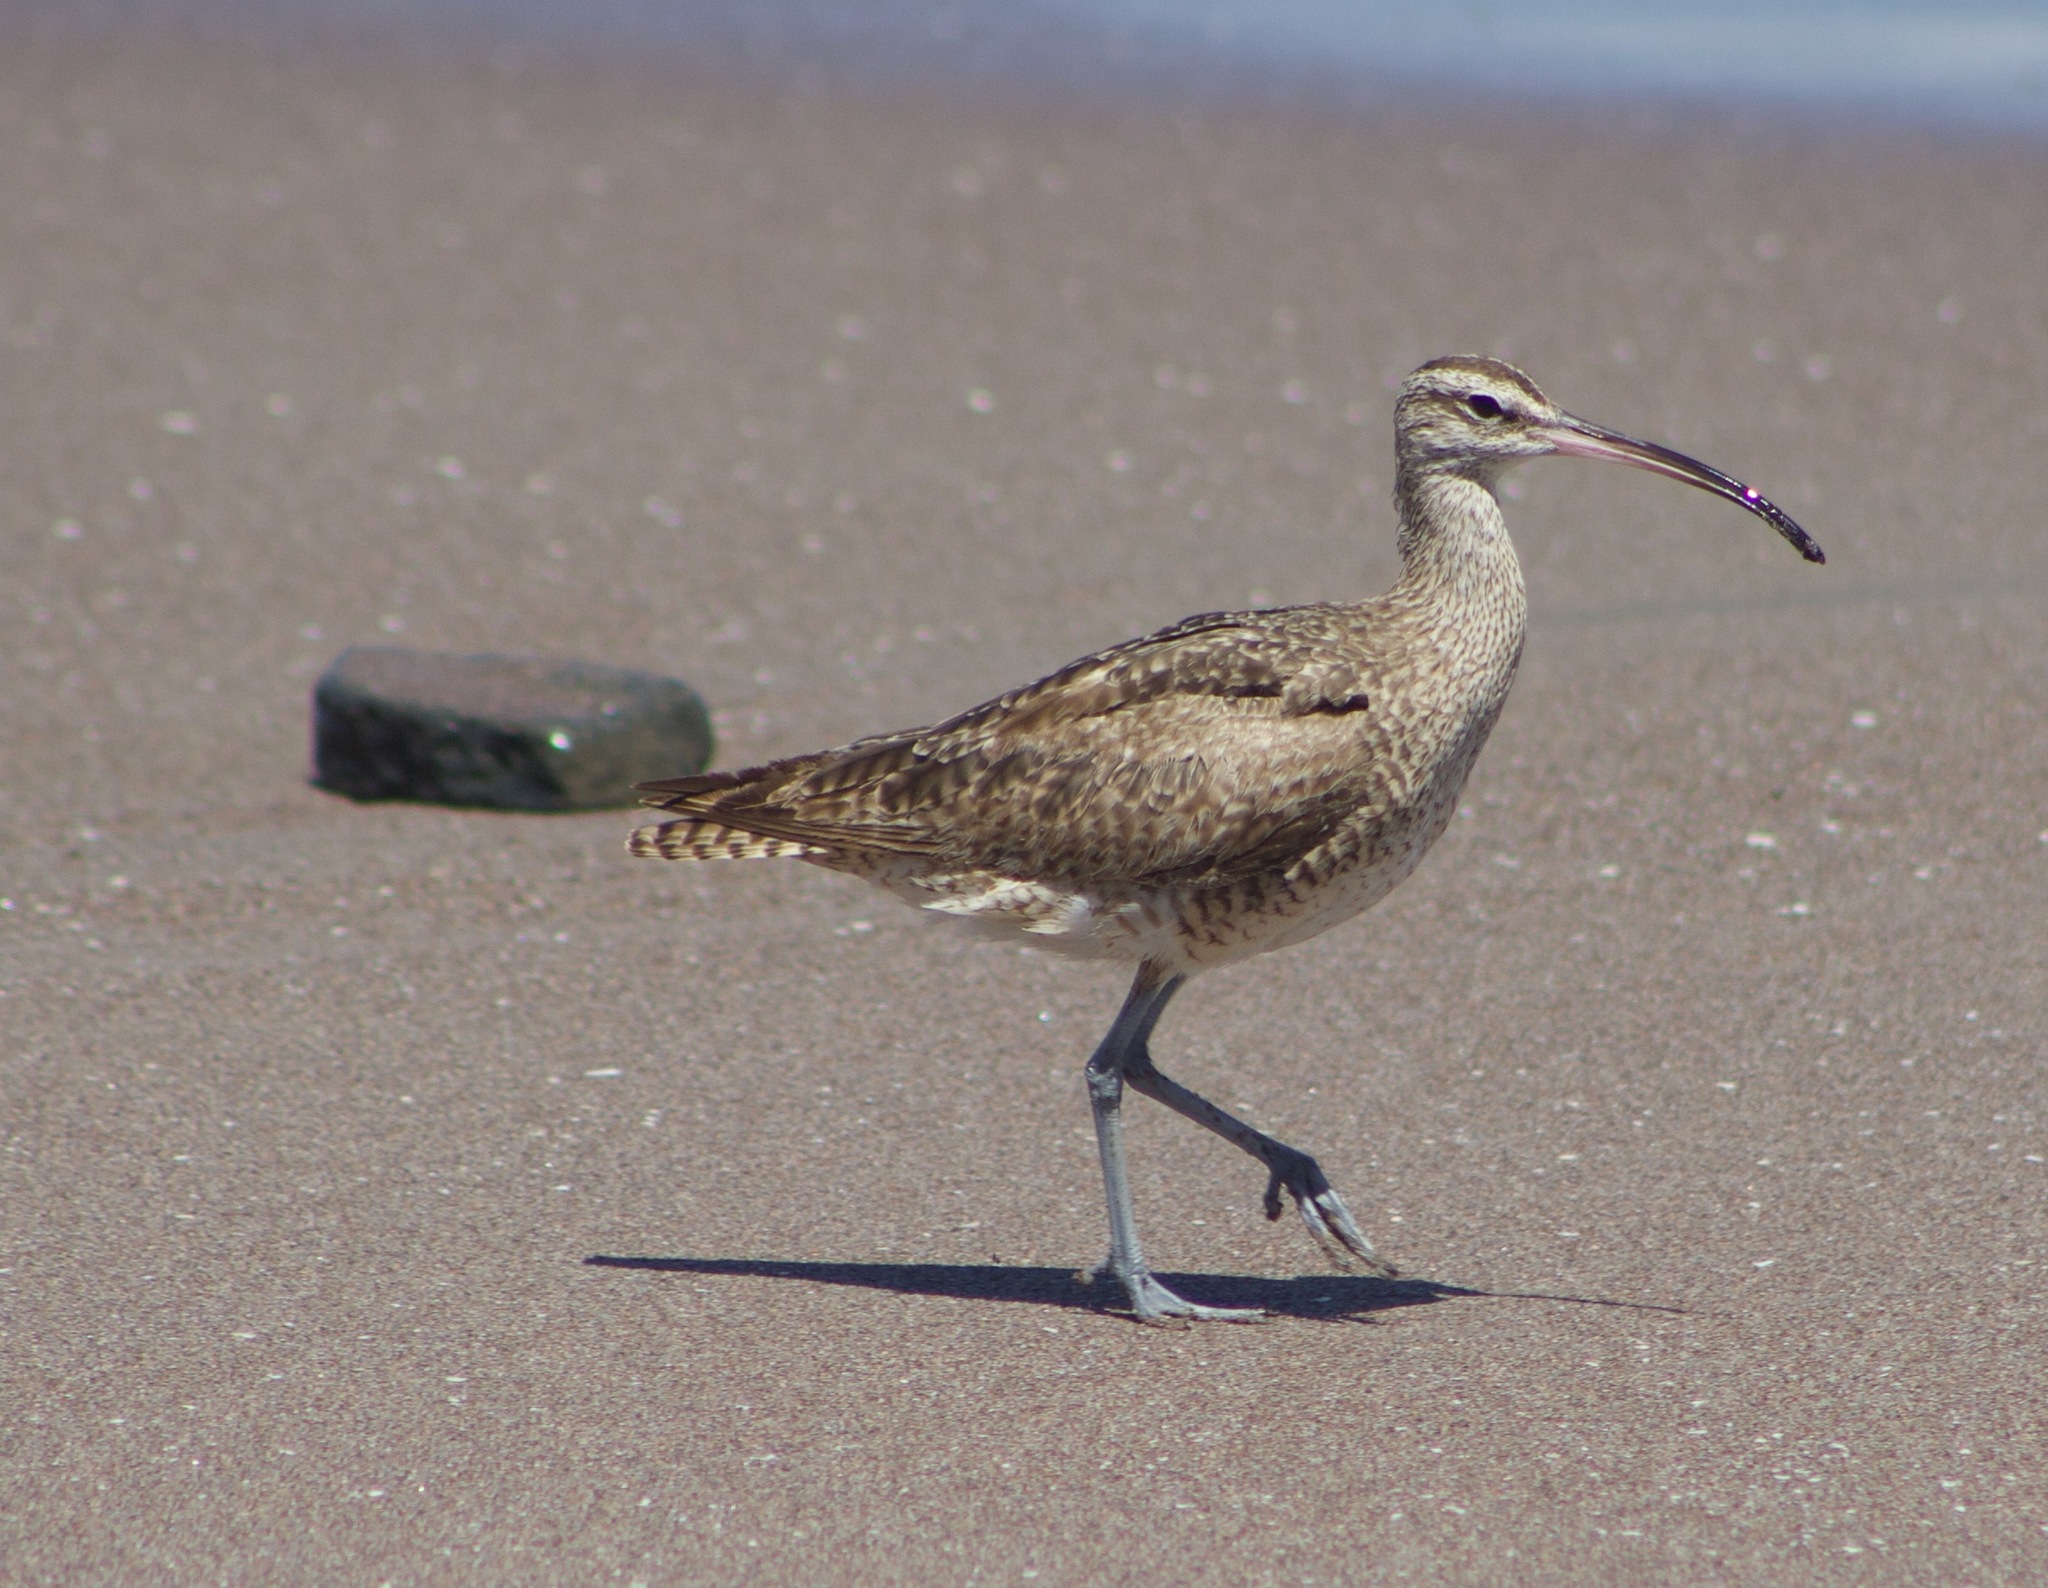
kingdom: Animalia
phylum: Chordata
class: Aves
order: Charadriiformes
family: Scolopacidae
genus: Numenius
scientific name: Numenius phaeopus
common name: Whimbrel
